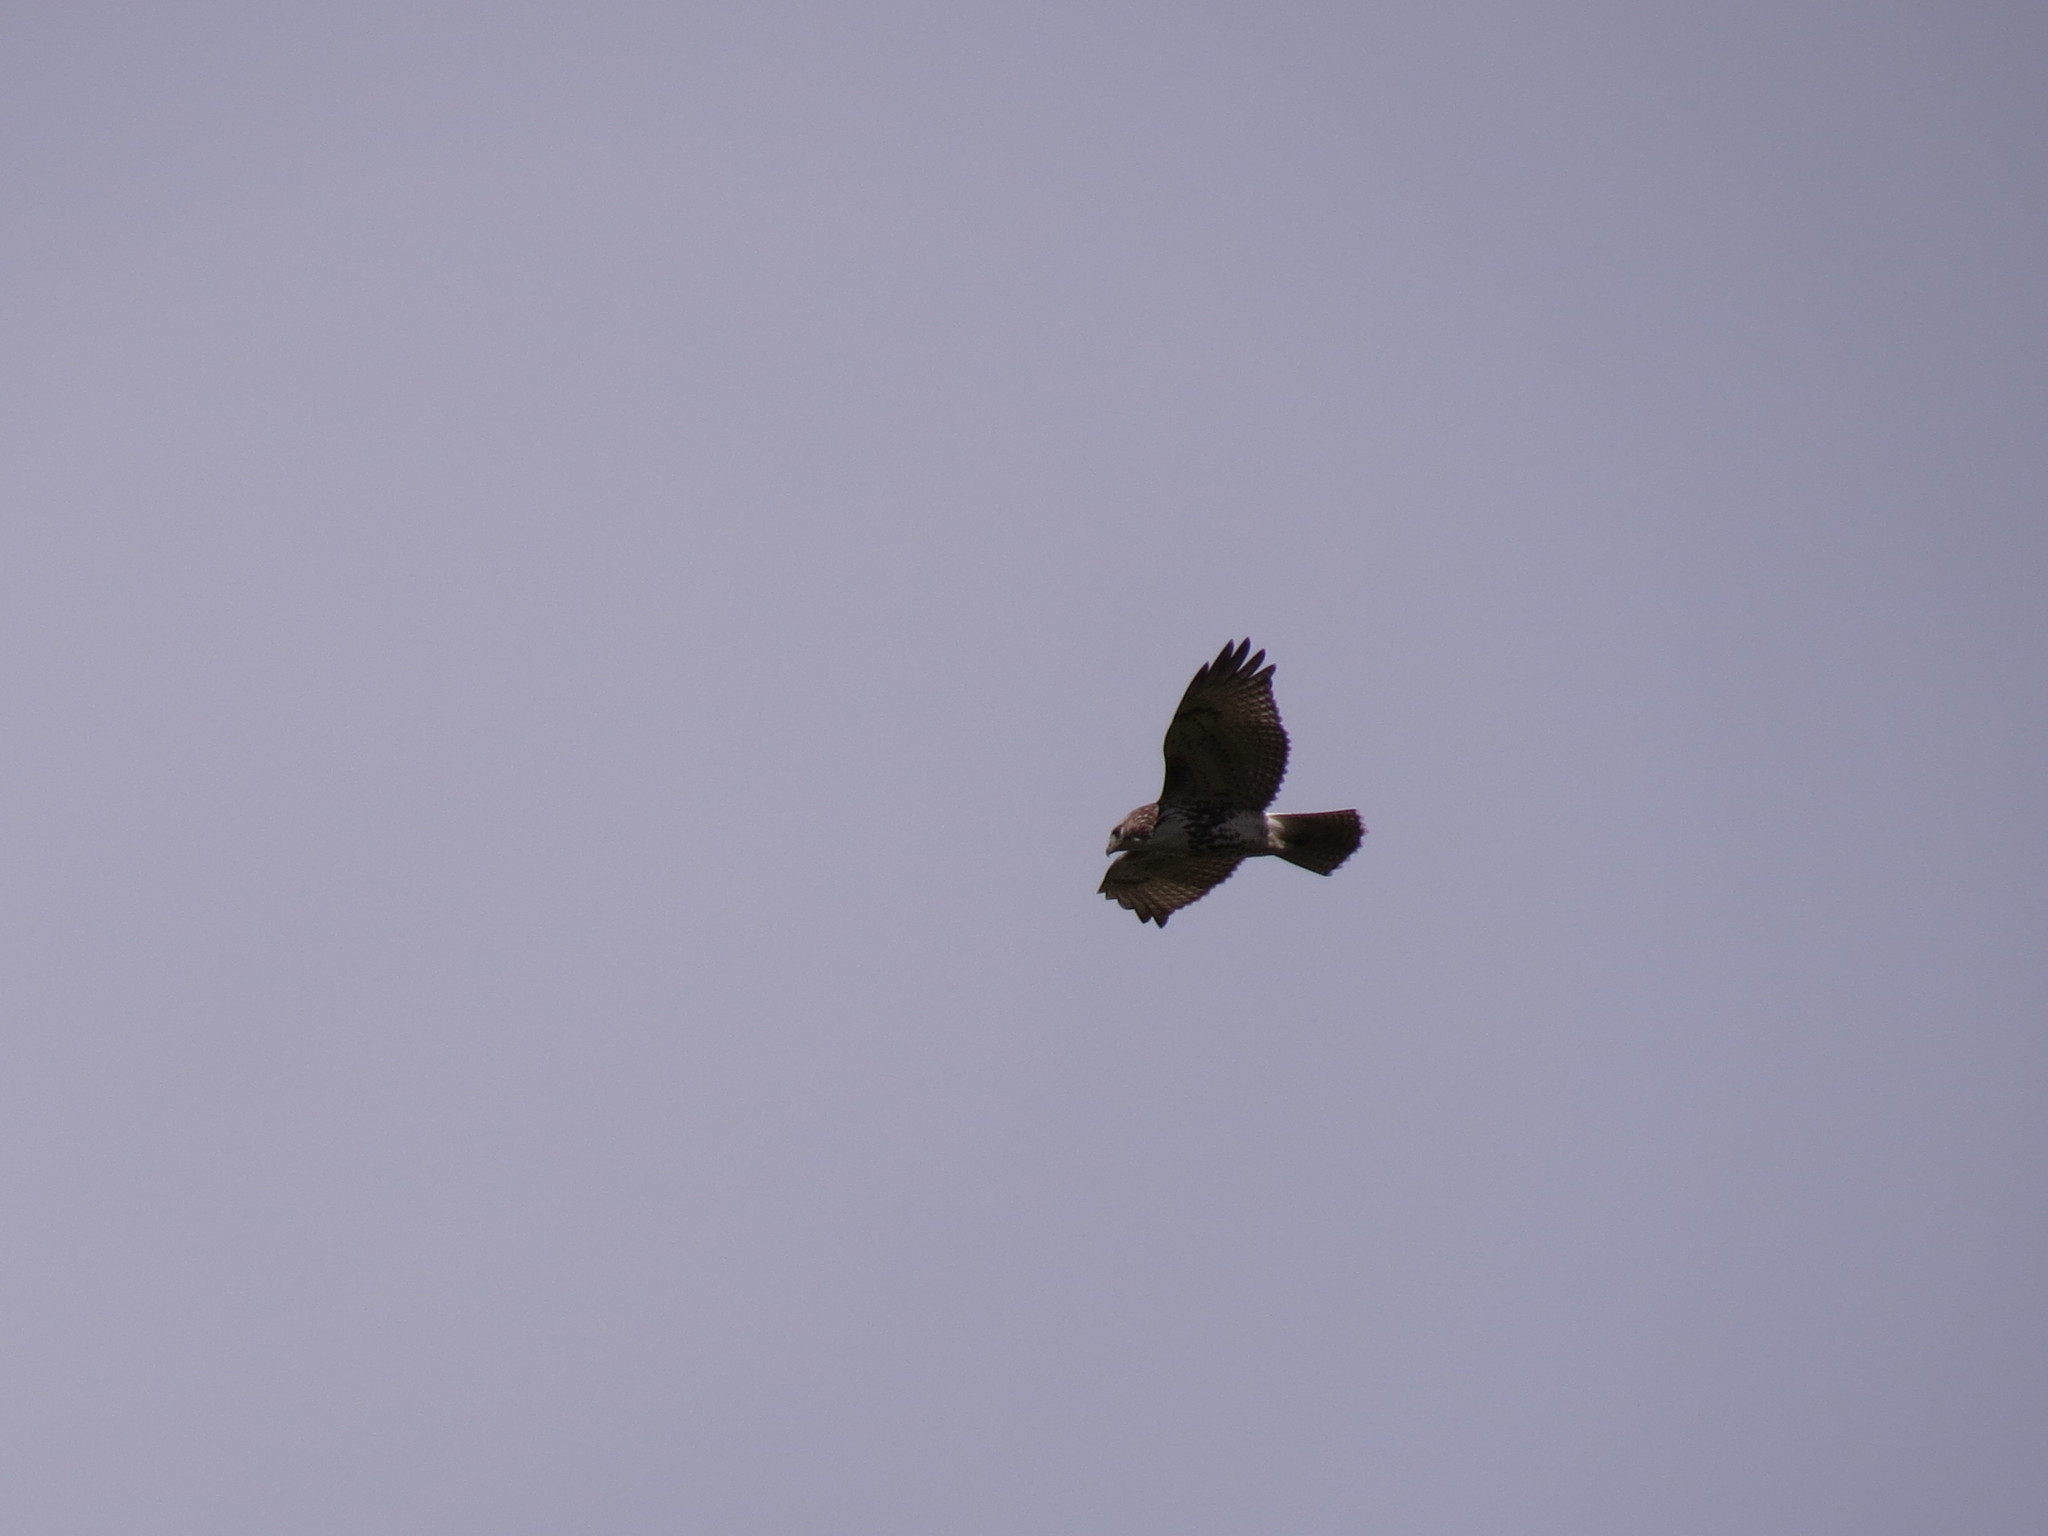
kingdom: Animalia
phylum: Chordata
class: Aves
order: Accipitriformes
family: Accipitridae
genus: Buteo
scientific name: Buteo jamaicensis
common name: Red-tailed hawk
